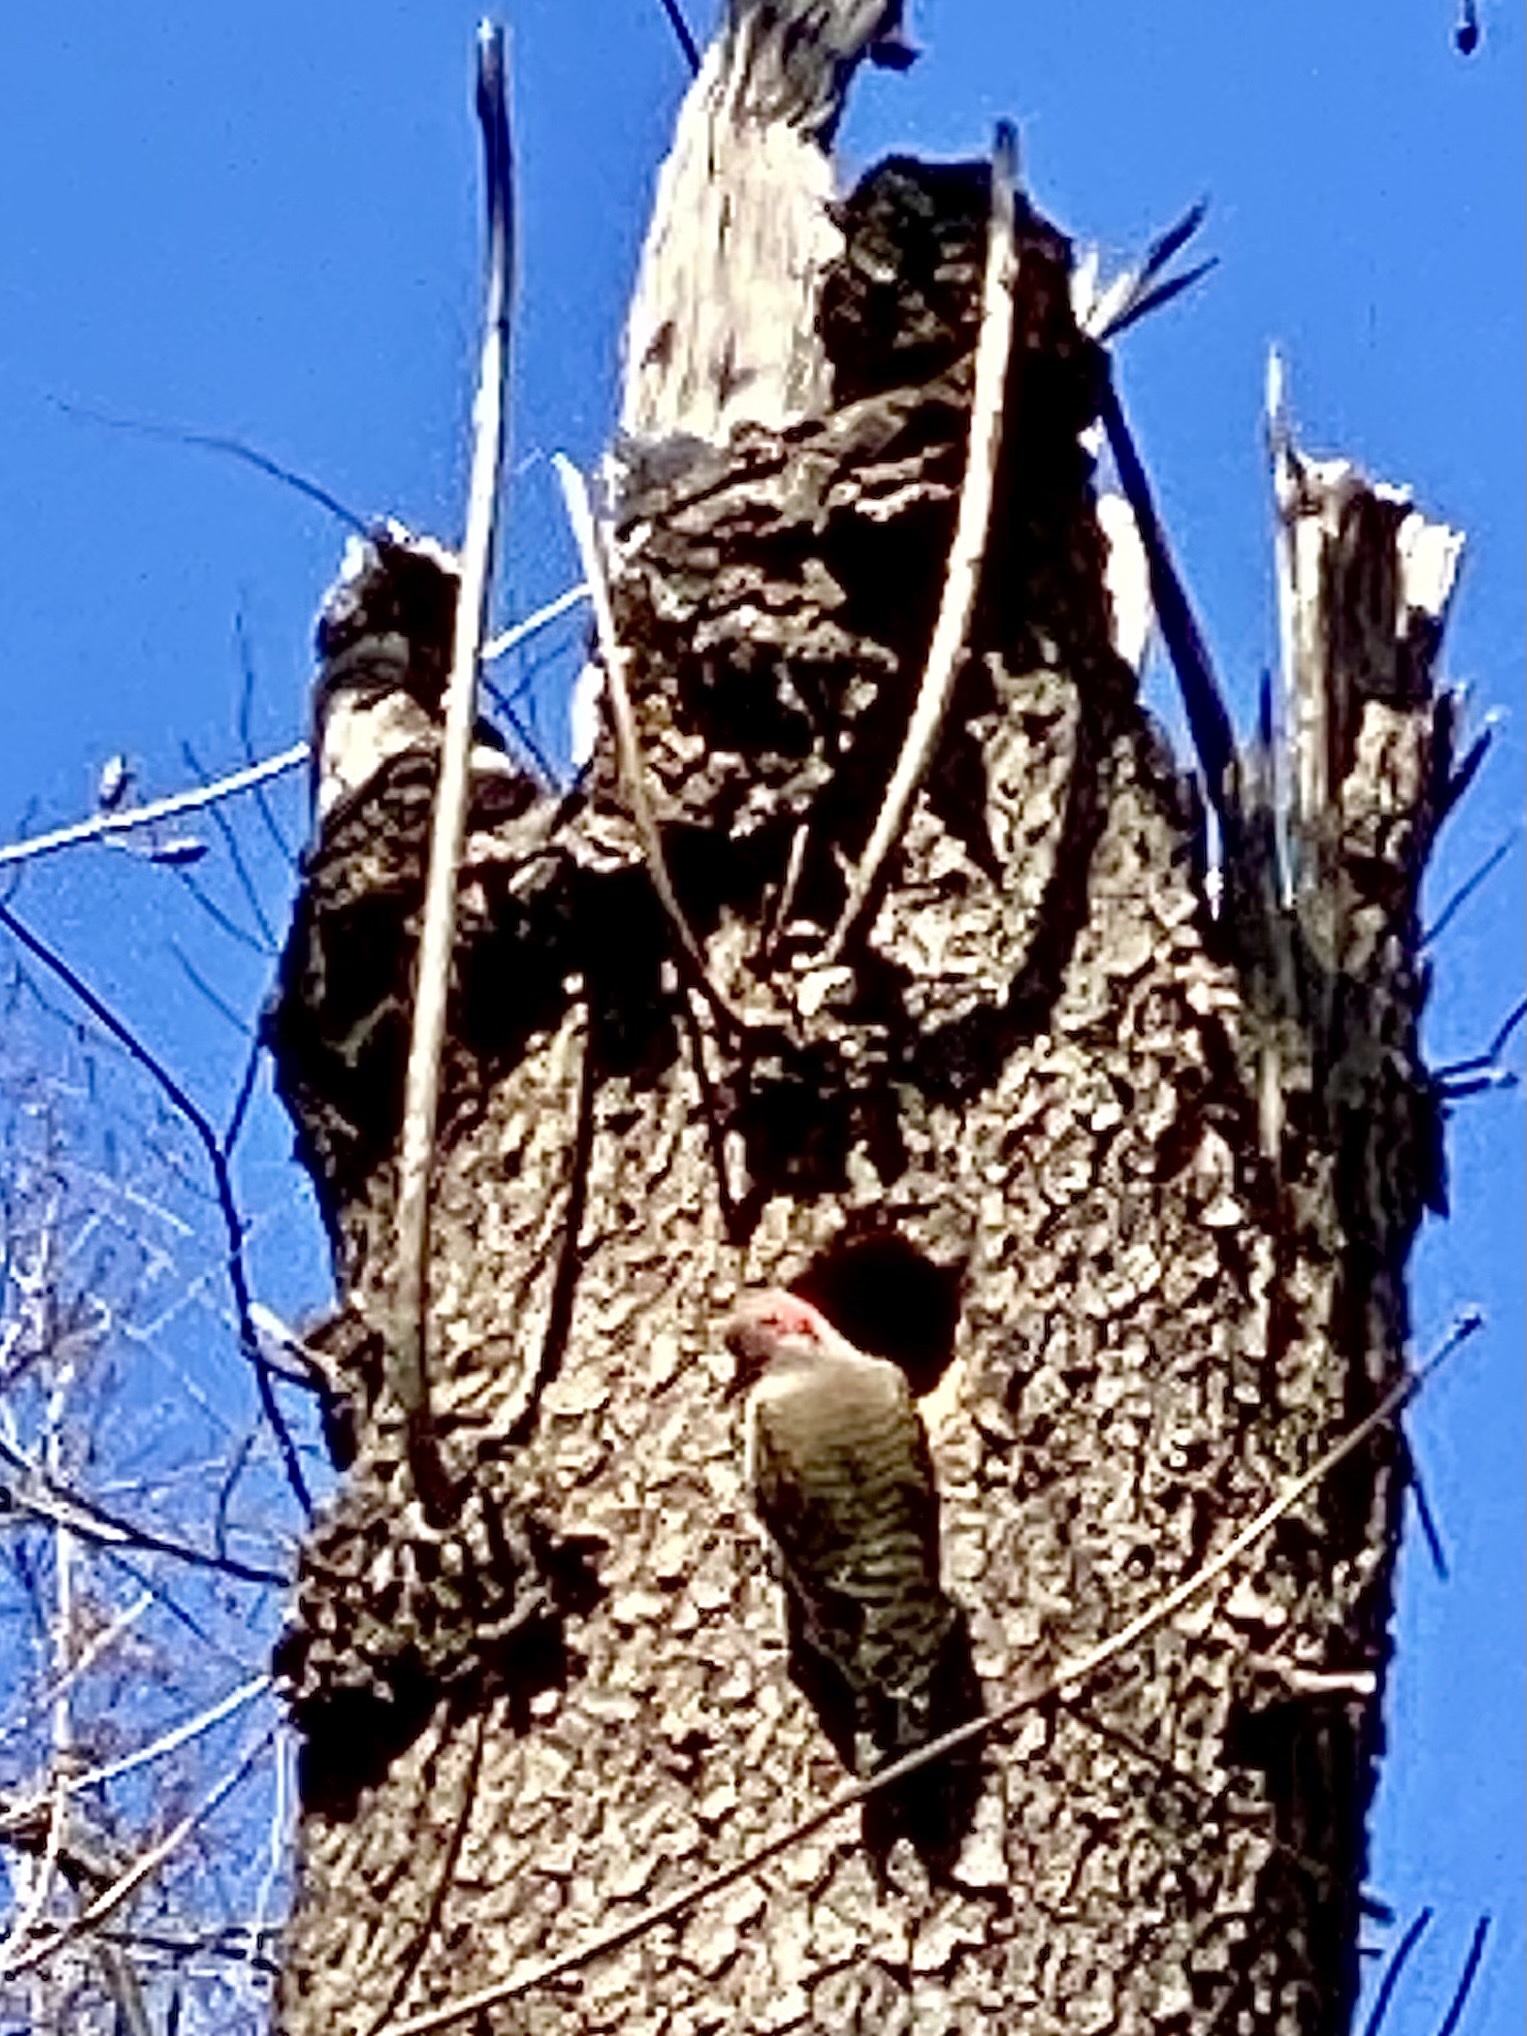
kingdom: Animalia
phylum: Chordata
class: Aves
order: Piciformes
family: Picidae
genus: Colaptes
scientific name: Colaptes auratus
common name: Northern flicker
